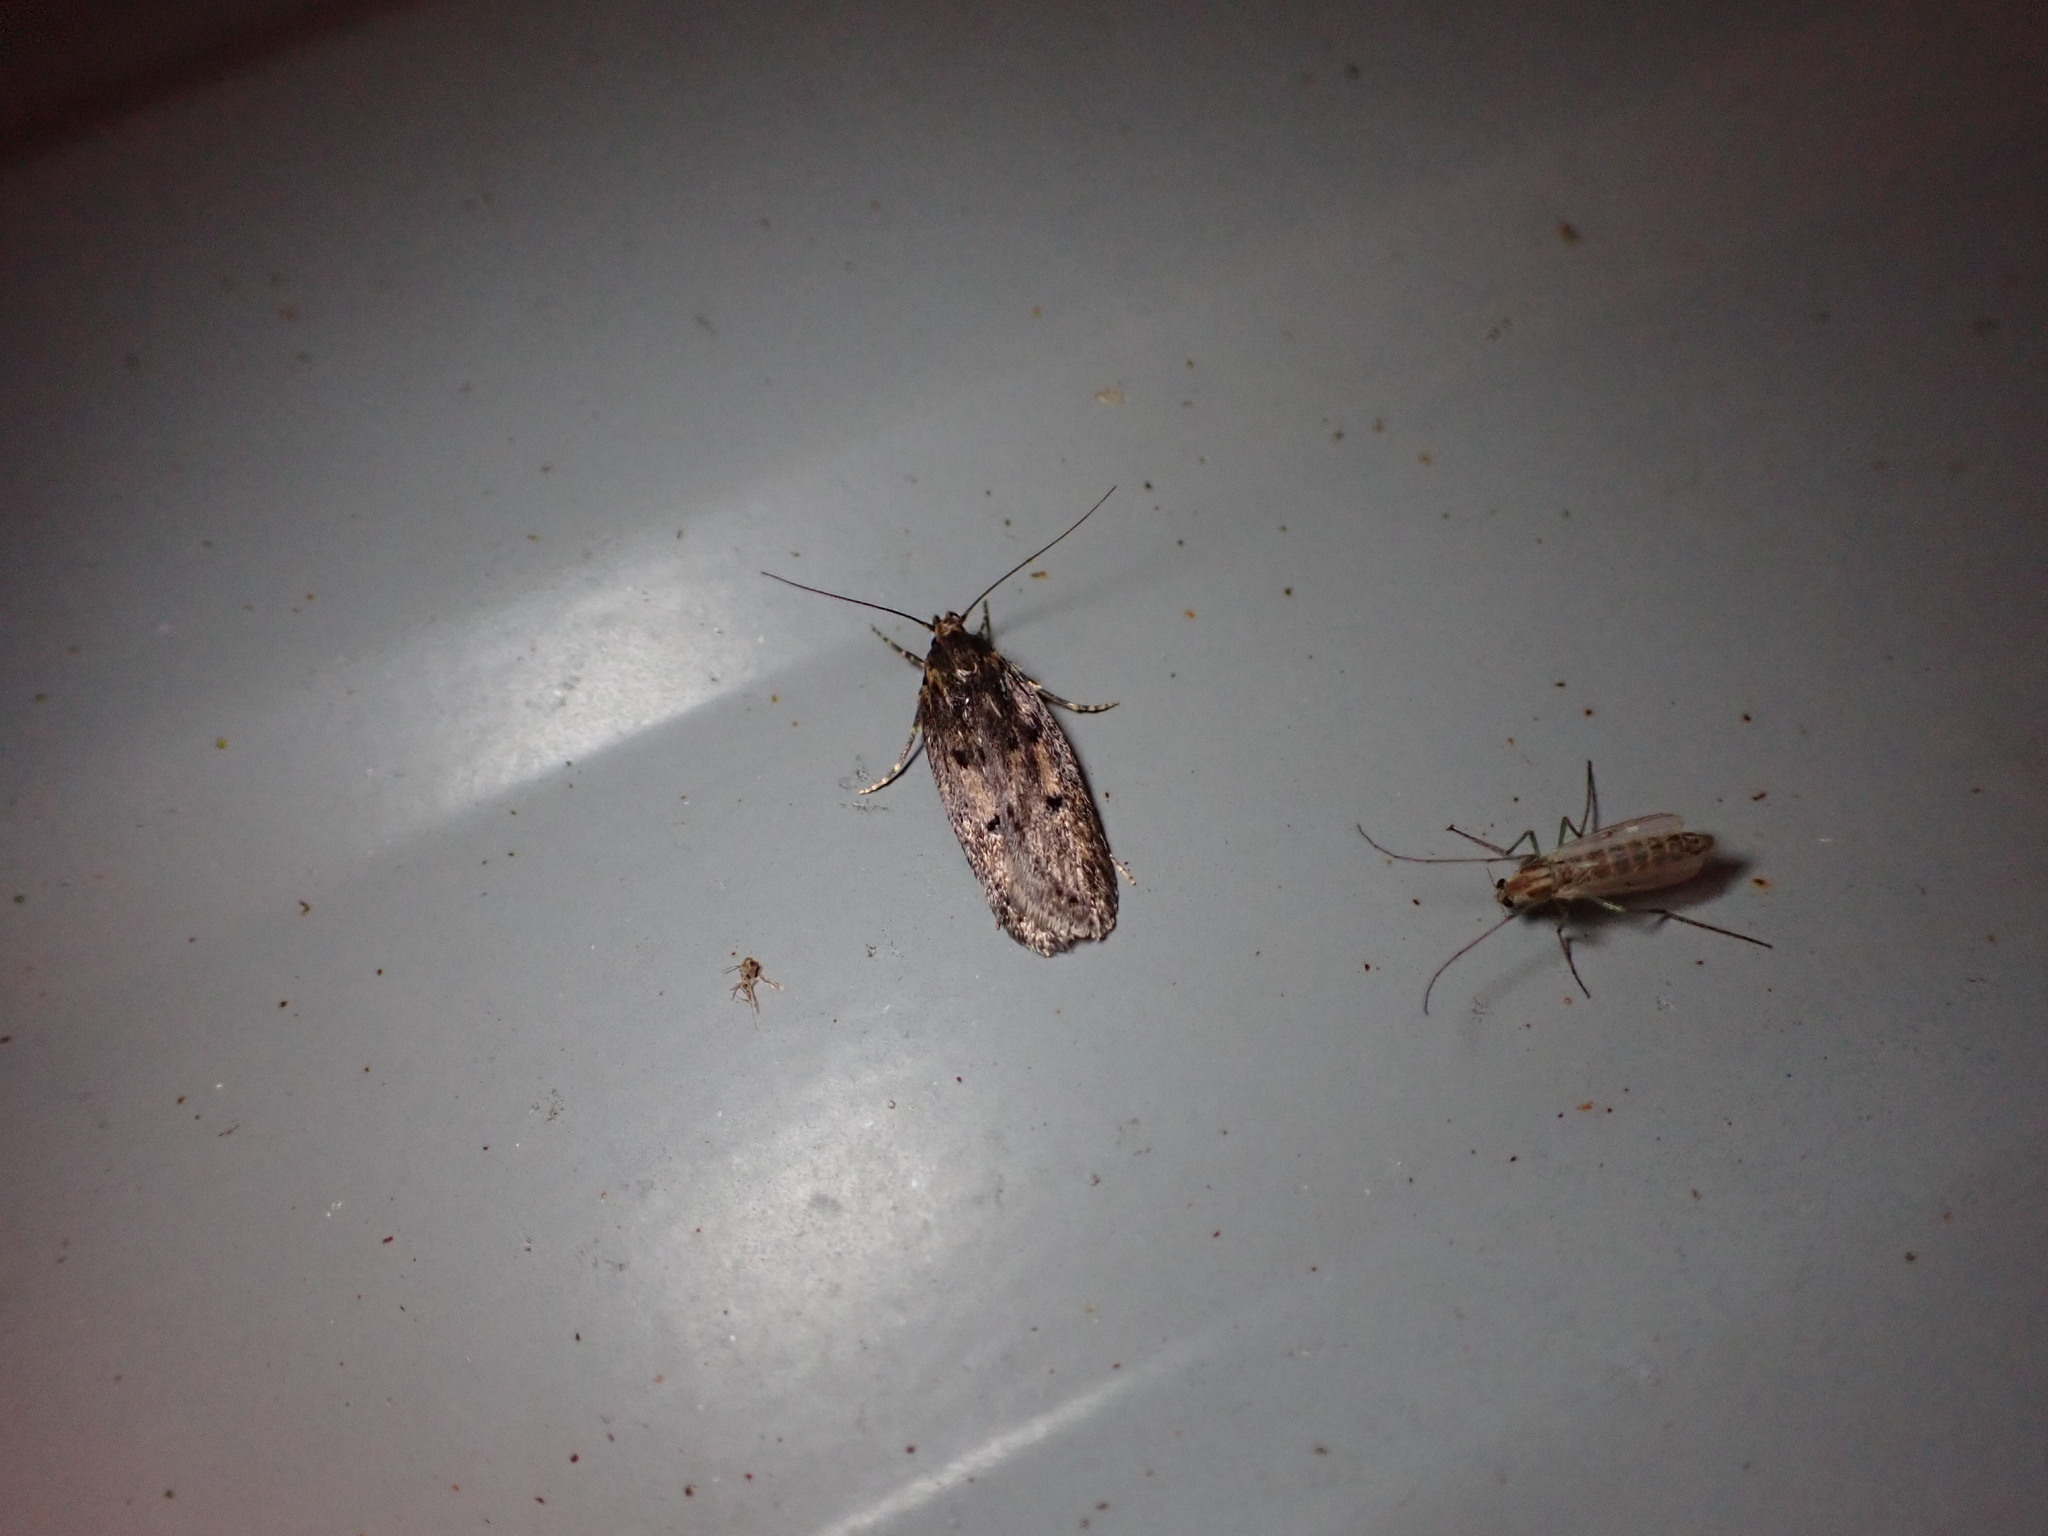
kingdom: Animalia
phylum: Arthropoda
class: Insecta
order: Lepidoptera
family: Oecophoridae
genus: Hofmannophila
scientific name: Hofmannophila pseudospretella
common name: Brown house moth
